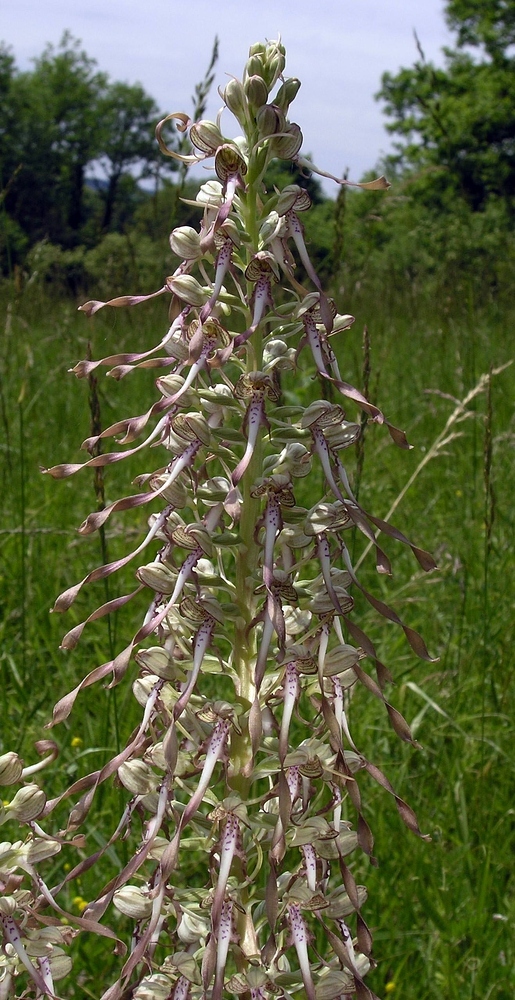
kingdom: Plantae
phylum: Tracheophyta
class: Liliopsida
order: Asparagales
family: Orchidaceae
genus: Himantoglossum
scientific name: Himantoglossum hircinum
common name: Lizard orchid
